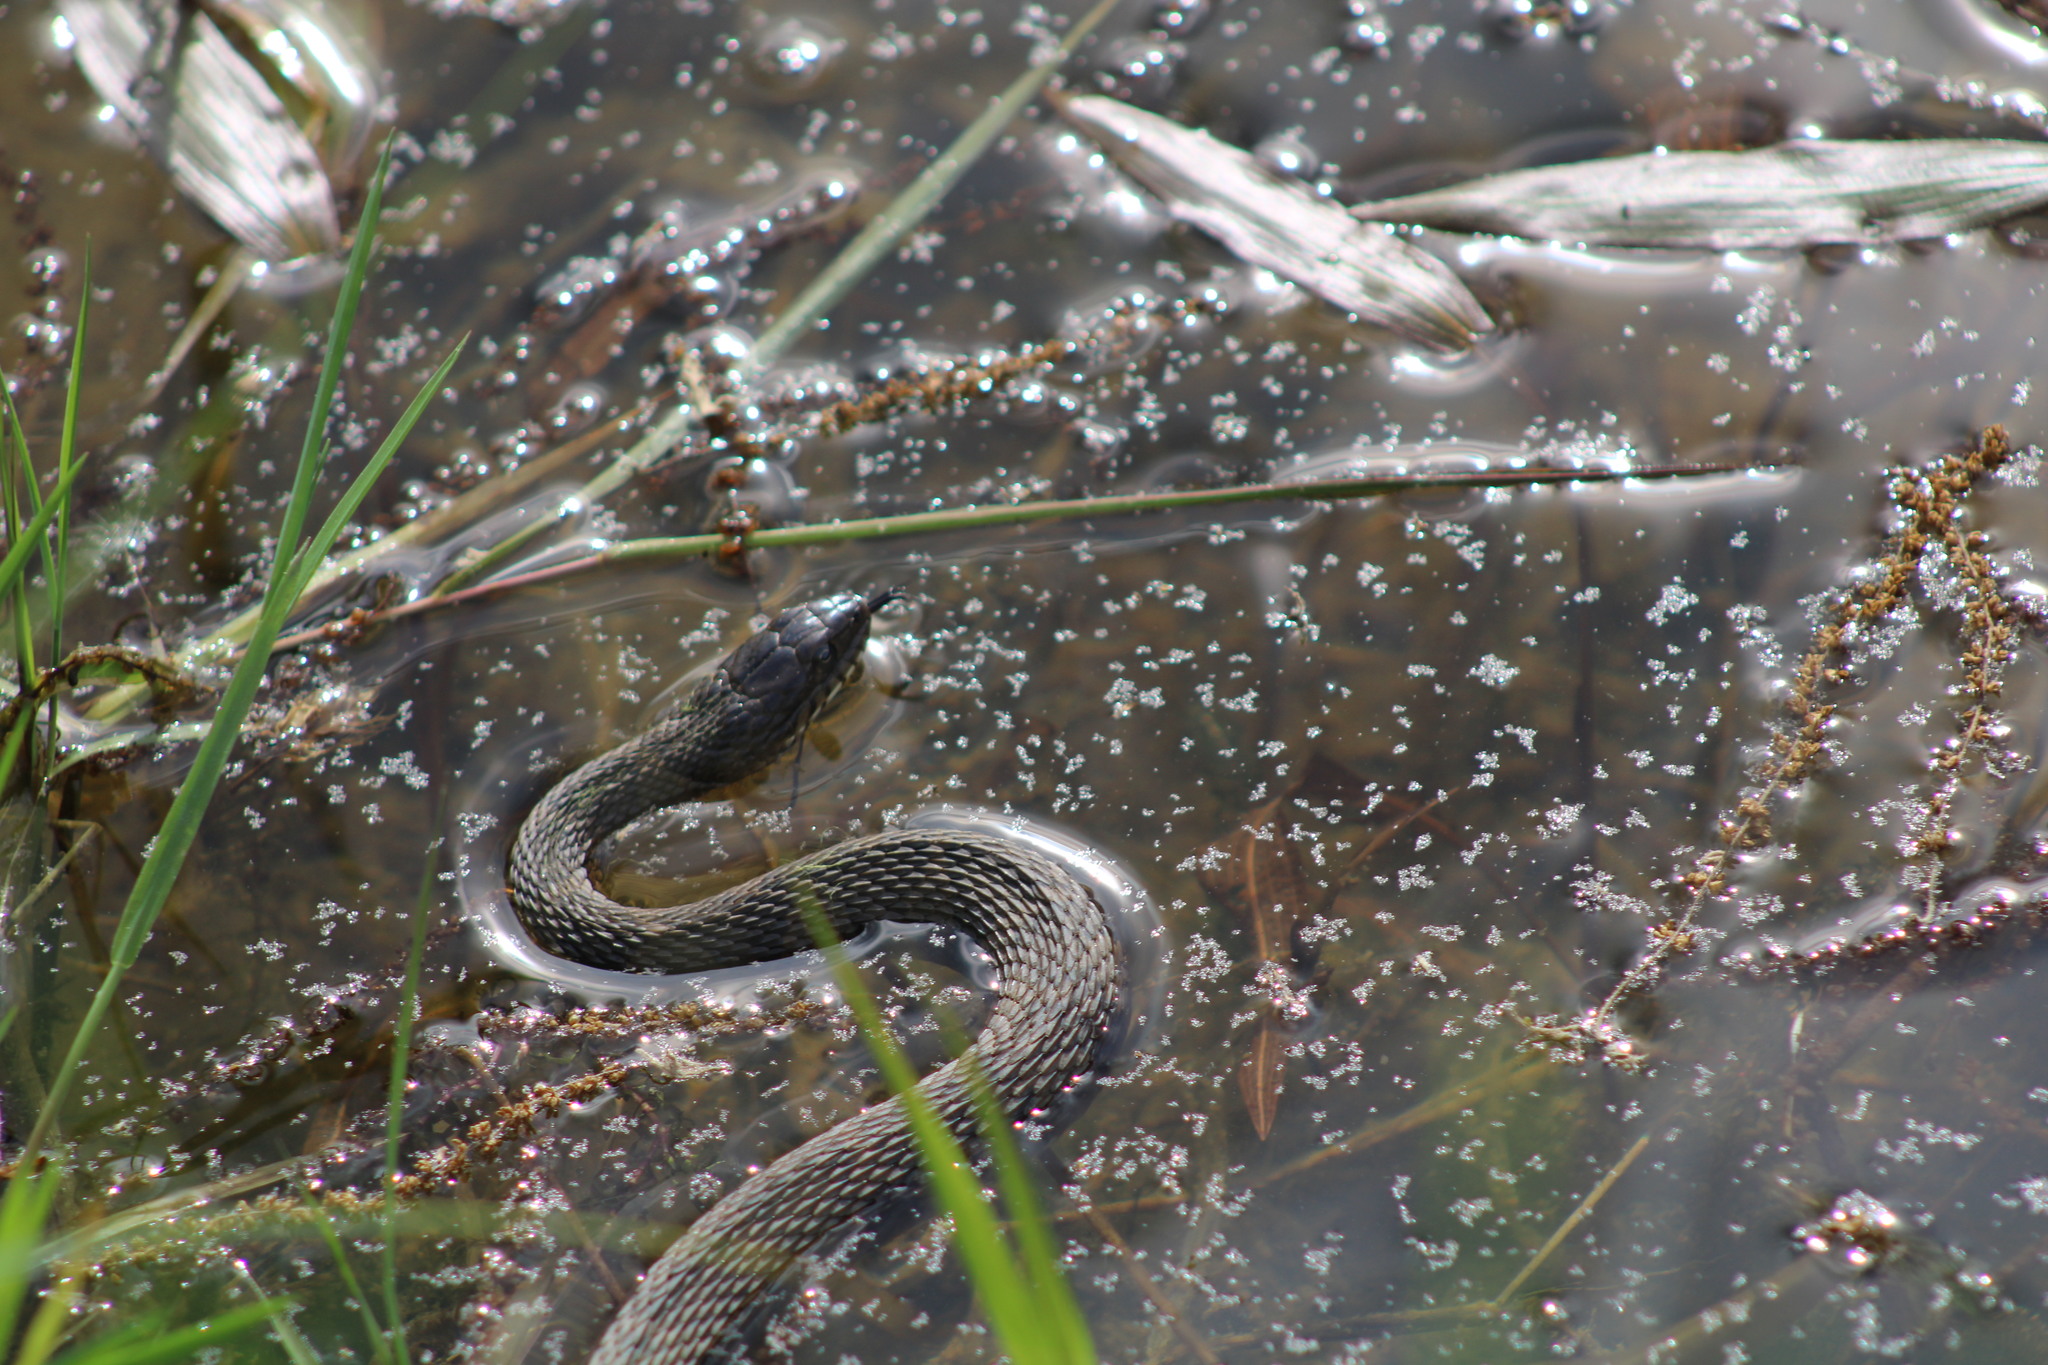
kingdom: Animalia
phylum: Chordata
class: Squamata
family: Colubridae
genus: Nerodia
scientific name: Nerodia sipedon
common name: Northern water snake
